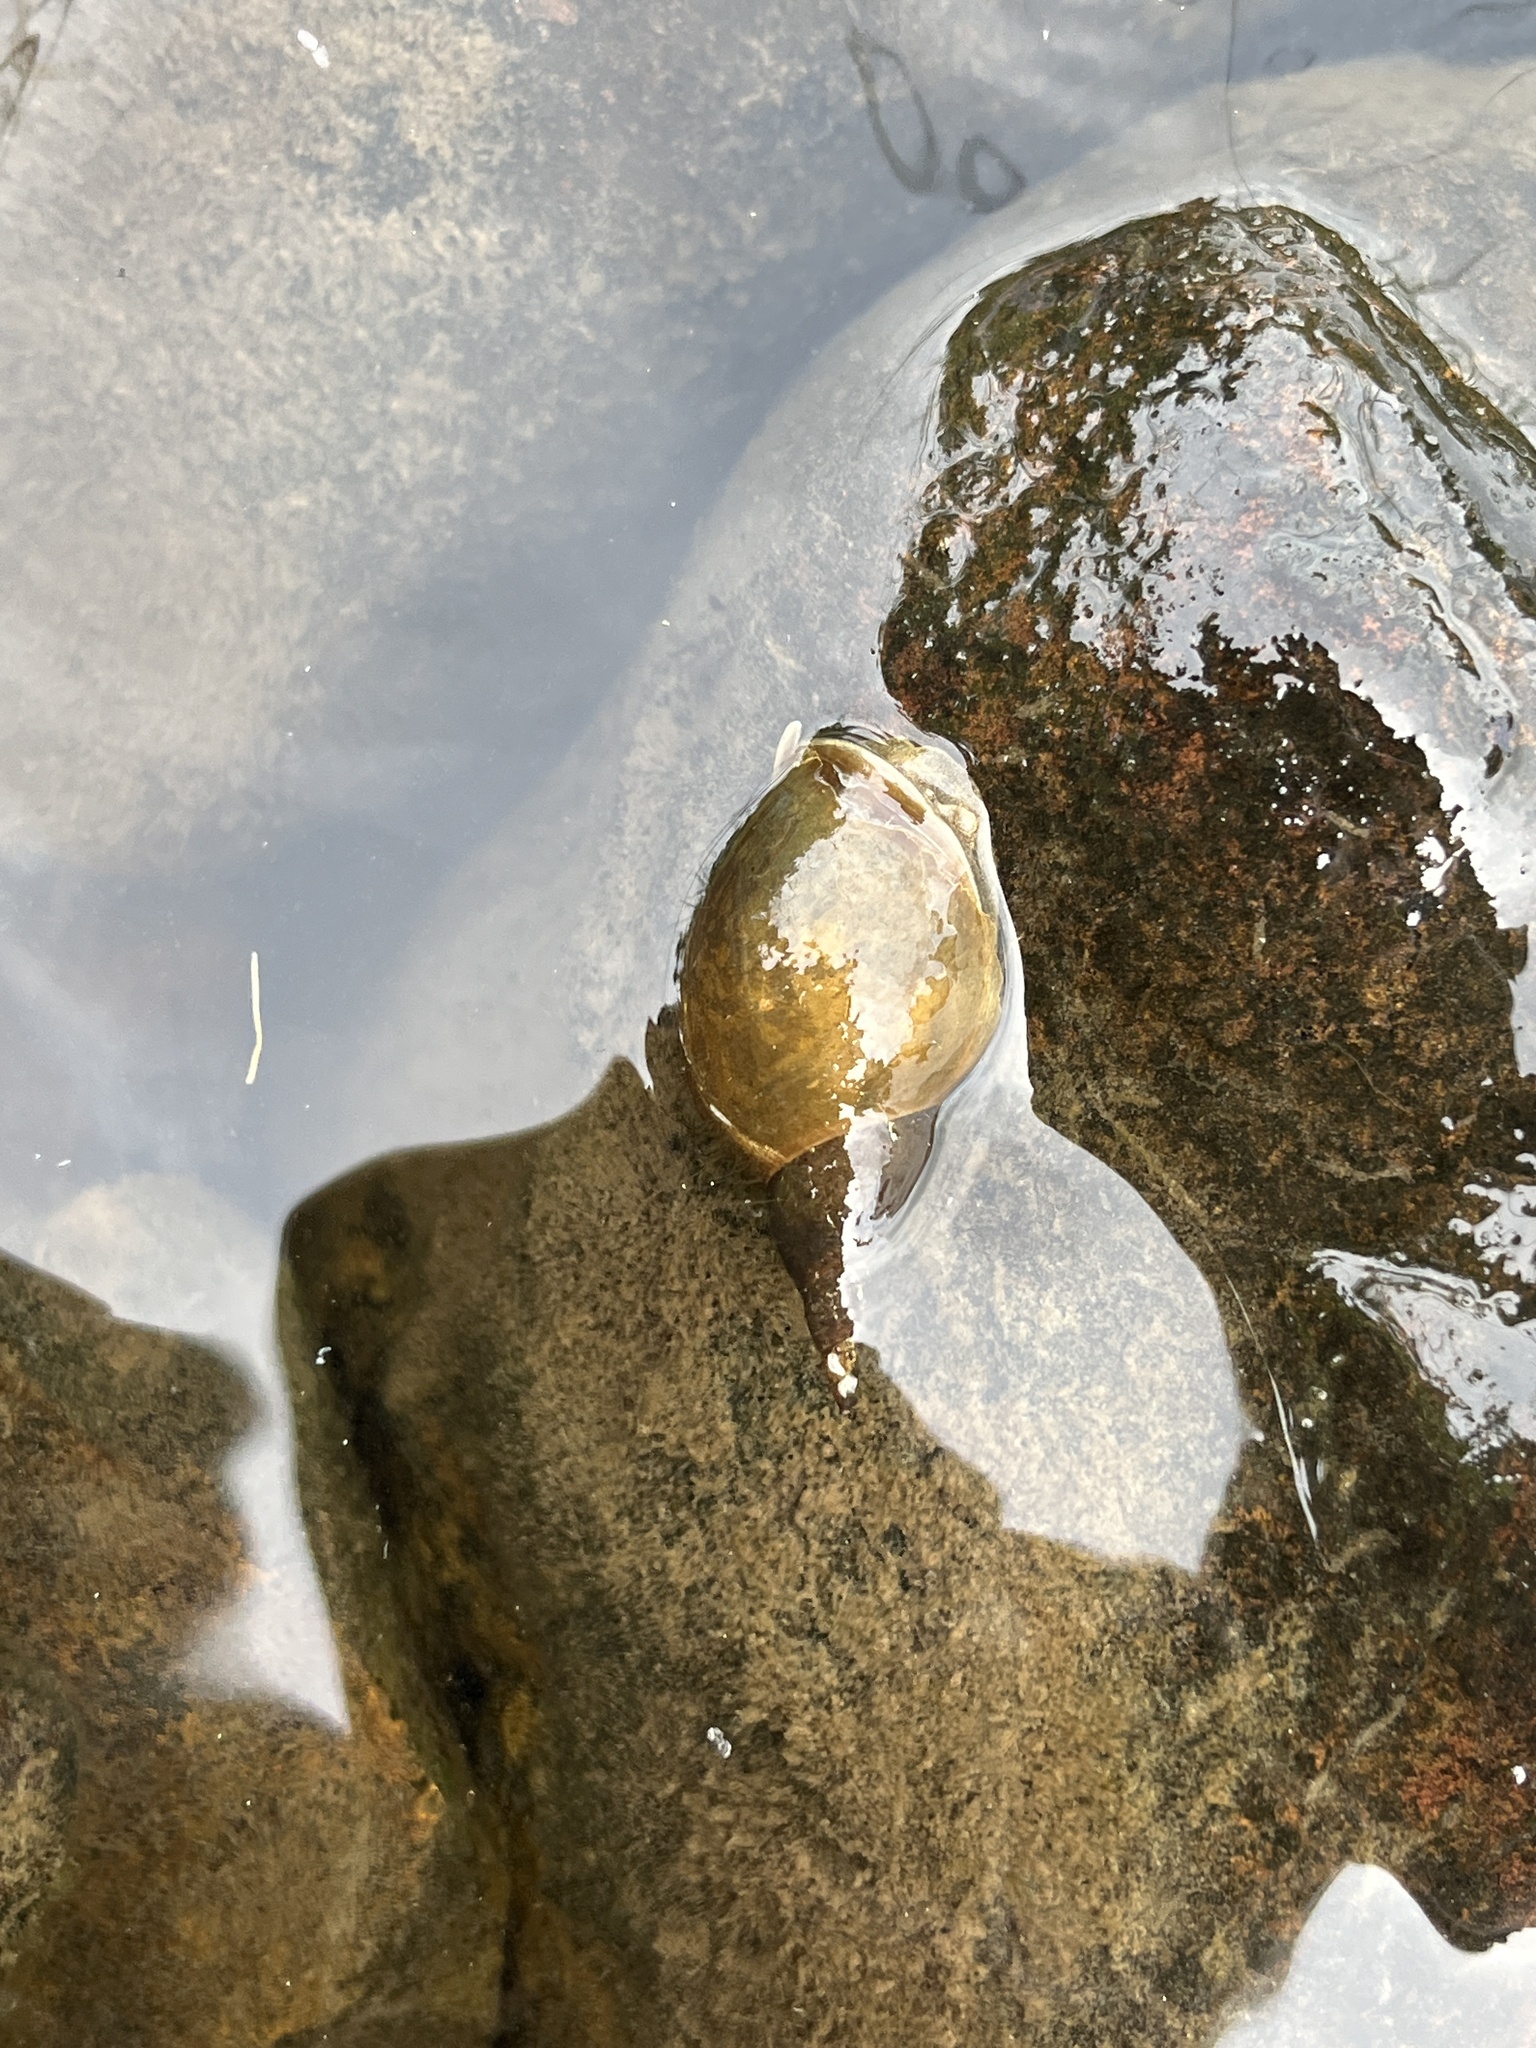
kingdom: Animalia
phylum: Mollusca
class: Gastropoda
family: Lymnaeidae
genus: Lymnaea
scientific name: Lymnaea stagnalis
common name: Great pond snail
